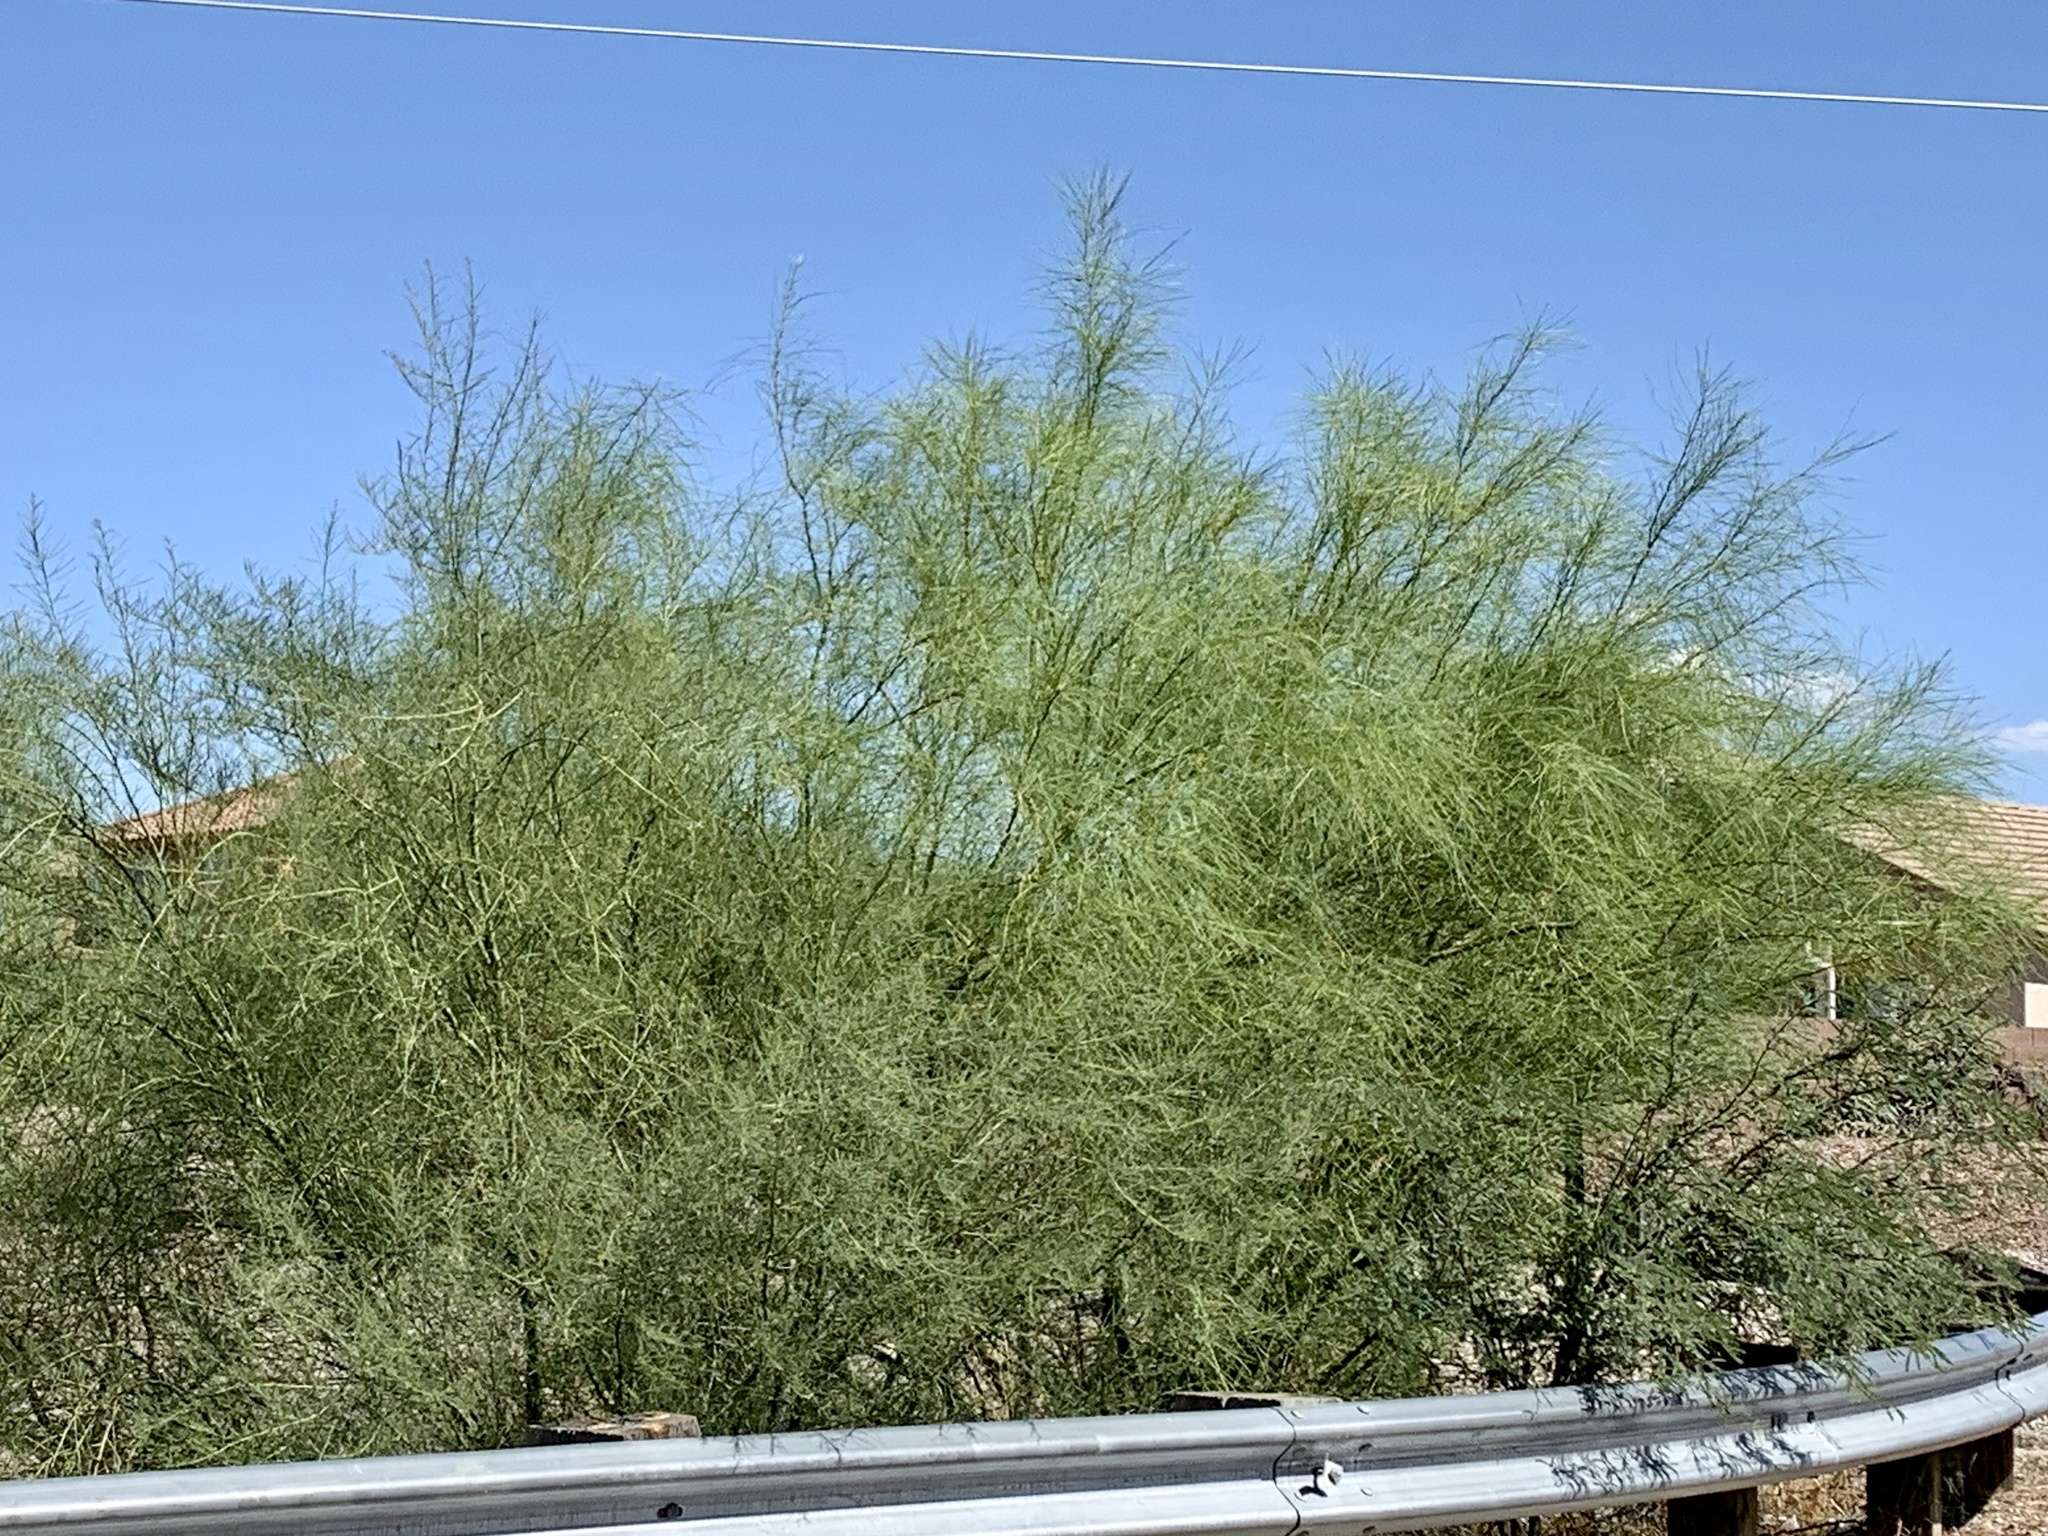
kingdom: Plantae
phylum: Tracheophyta
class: Magnoliopsida
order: Fabales
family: Fabaceae
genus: Parkinsonia
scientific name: Parkinsonia aculeata
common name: Jerusalem thorn
